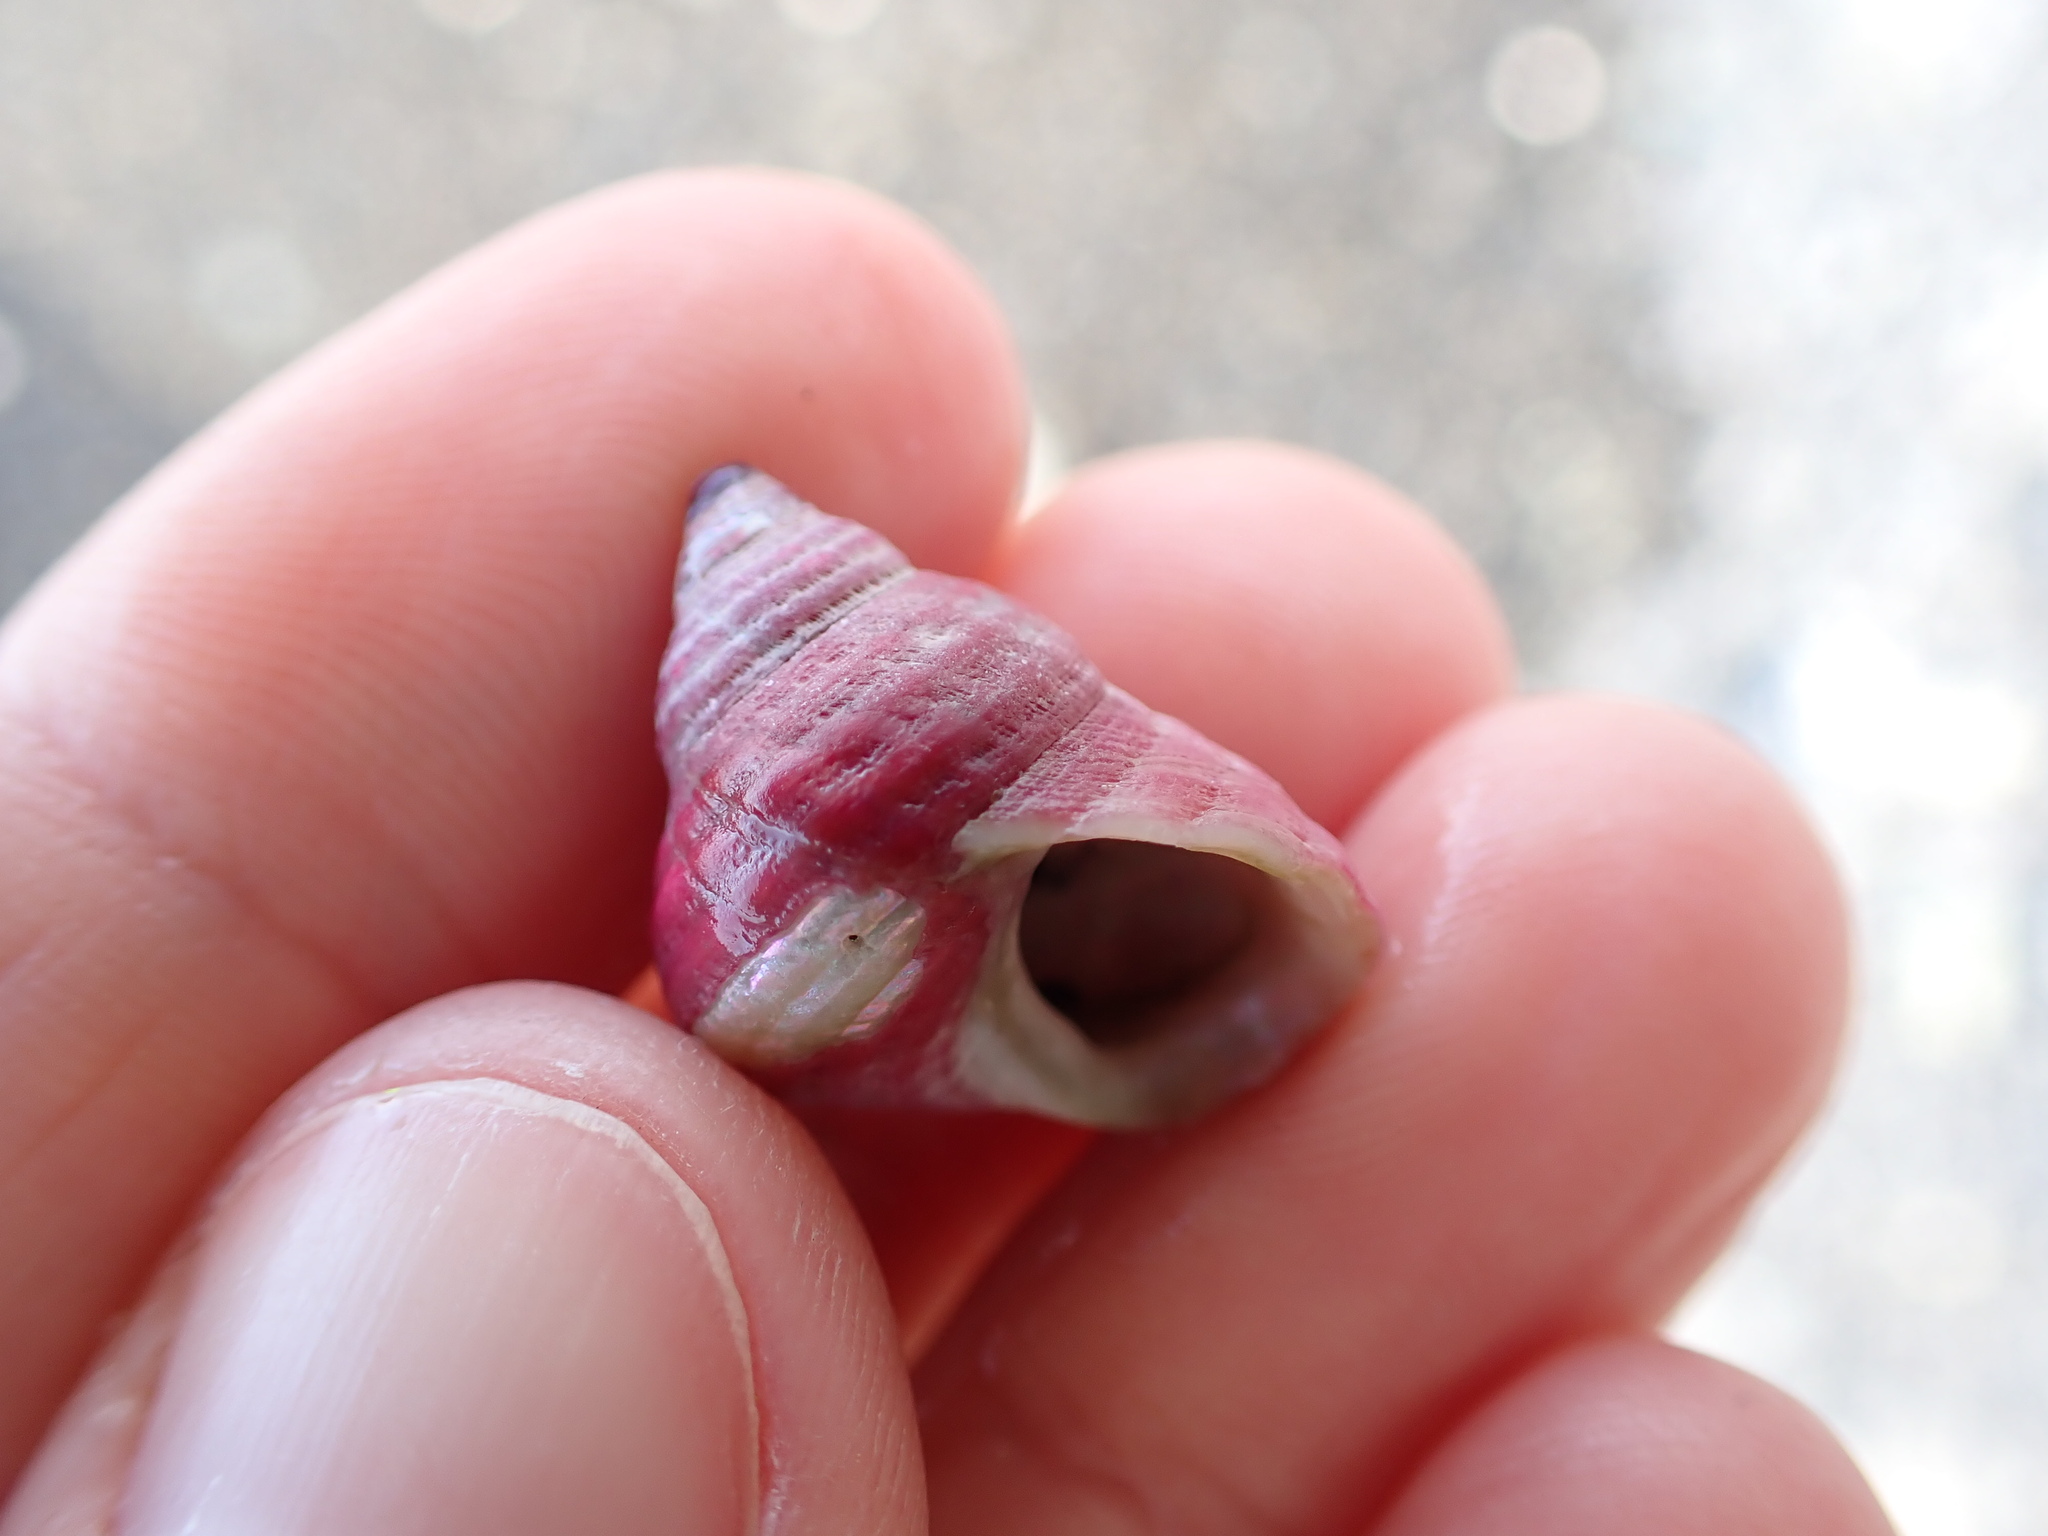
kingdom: Animalia
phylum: Mollusca
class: Gastropoda
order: Trochida
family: Trochidae
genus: Micrelenchus
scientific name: Micrelenchus purpureus
